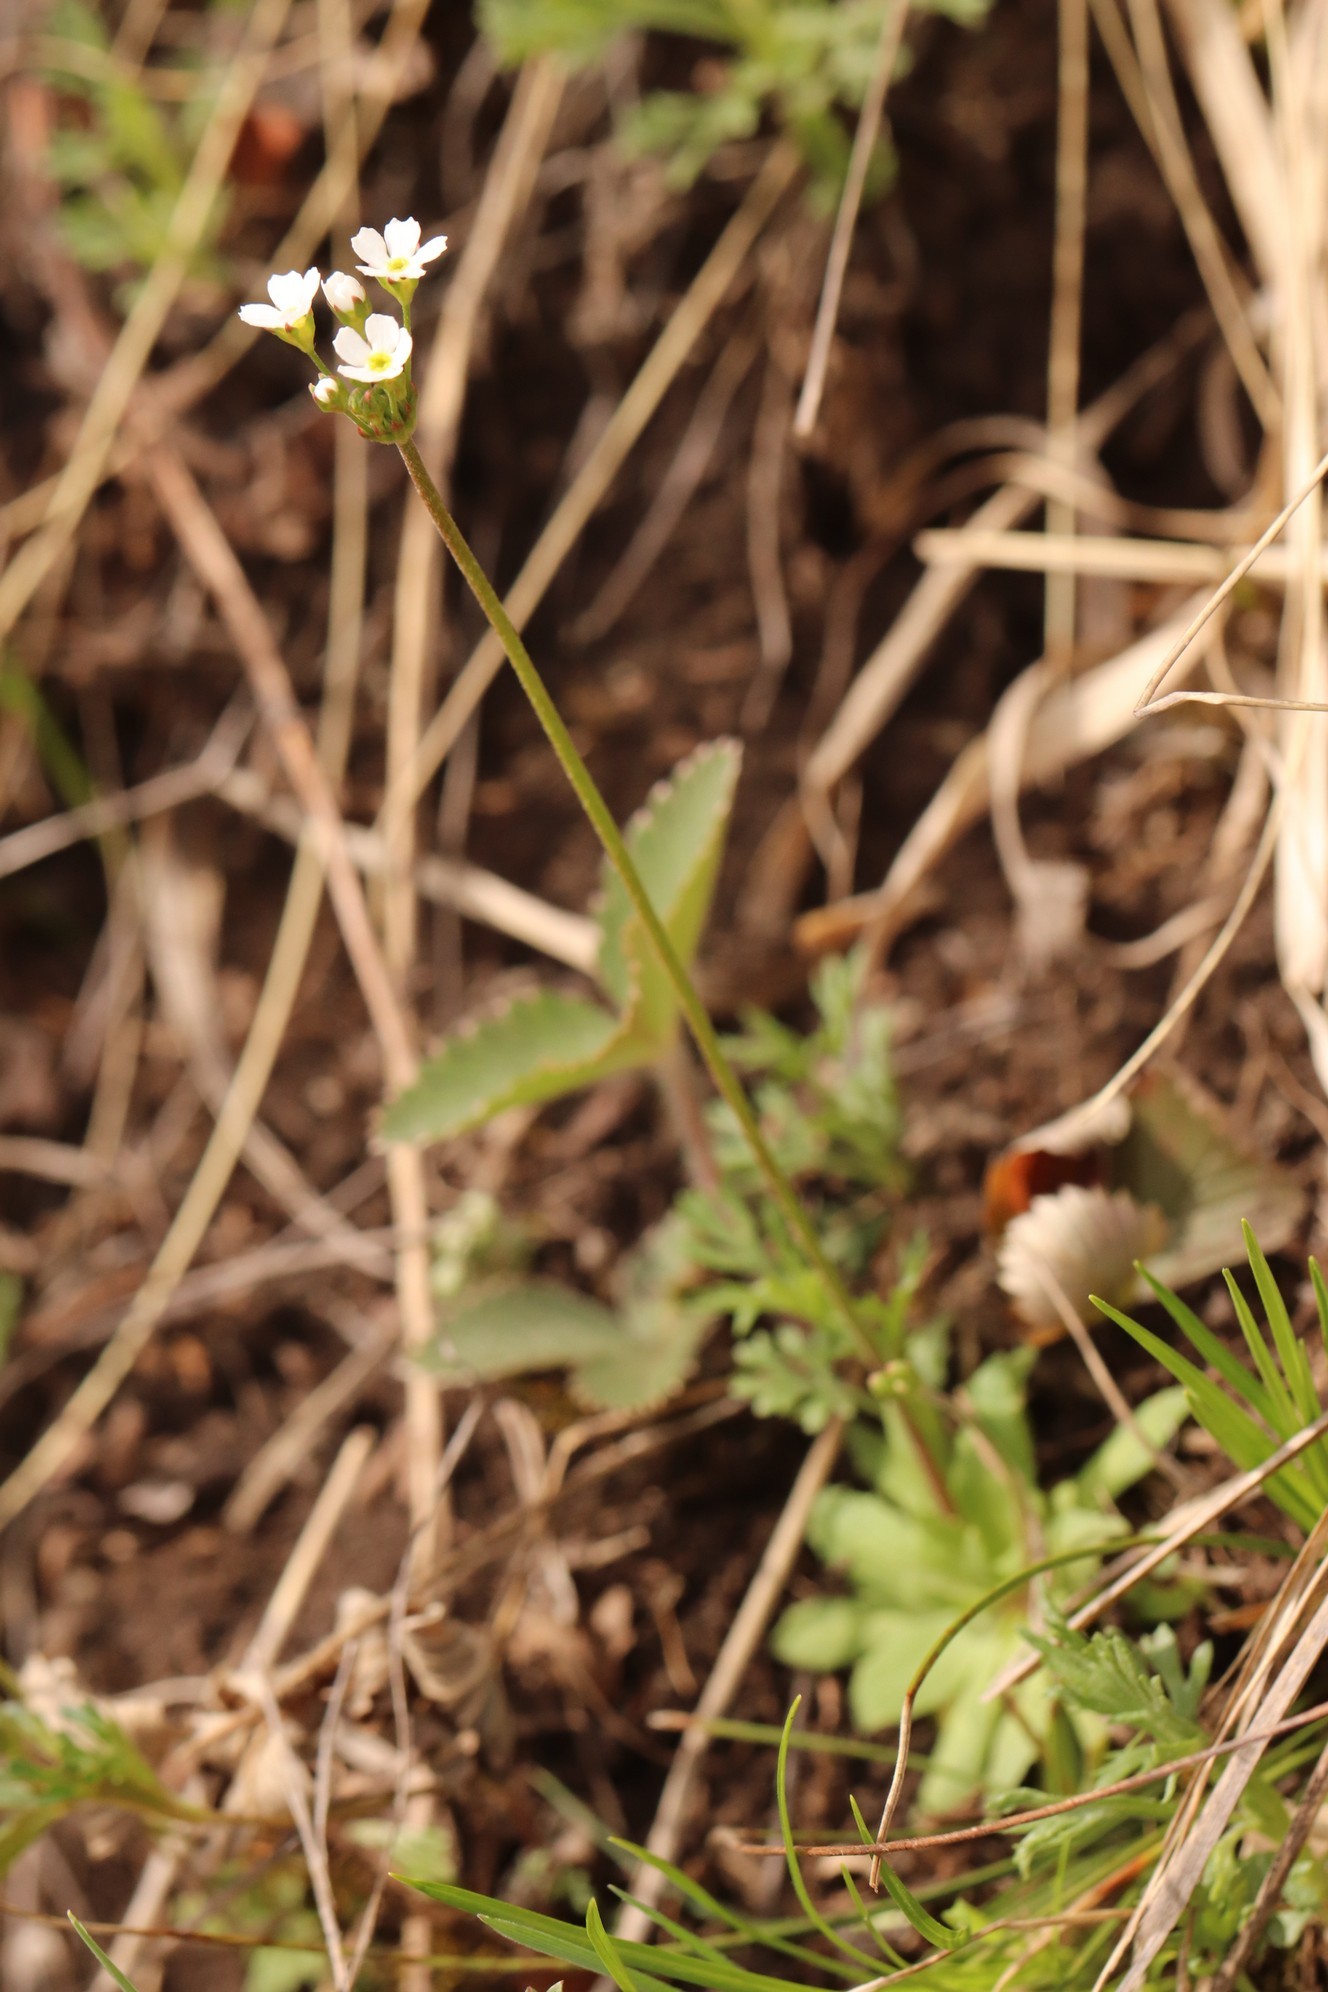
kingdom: Plantae
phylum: Tracheophyta
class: Magnoliopsida
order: Ericales
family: Primulaceae
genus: Androsace
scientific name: Androsace septentrionalis
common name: Hairy northern fairy-candelabra
